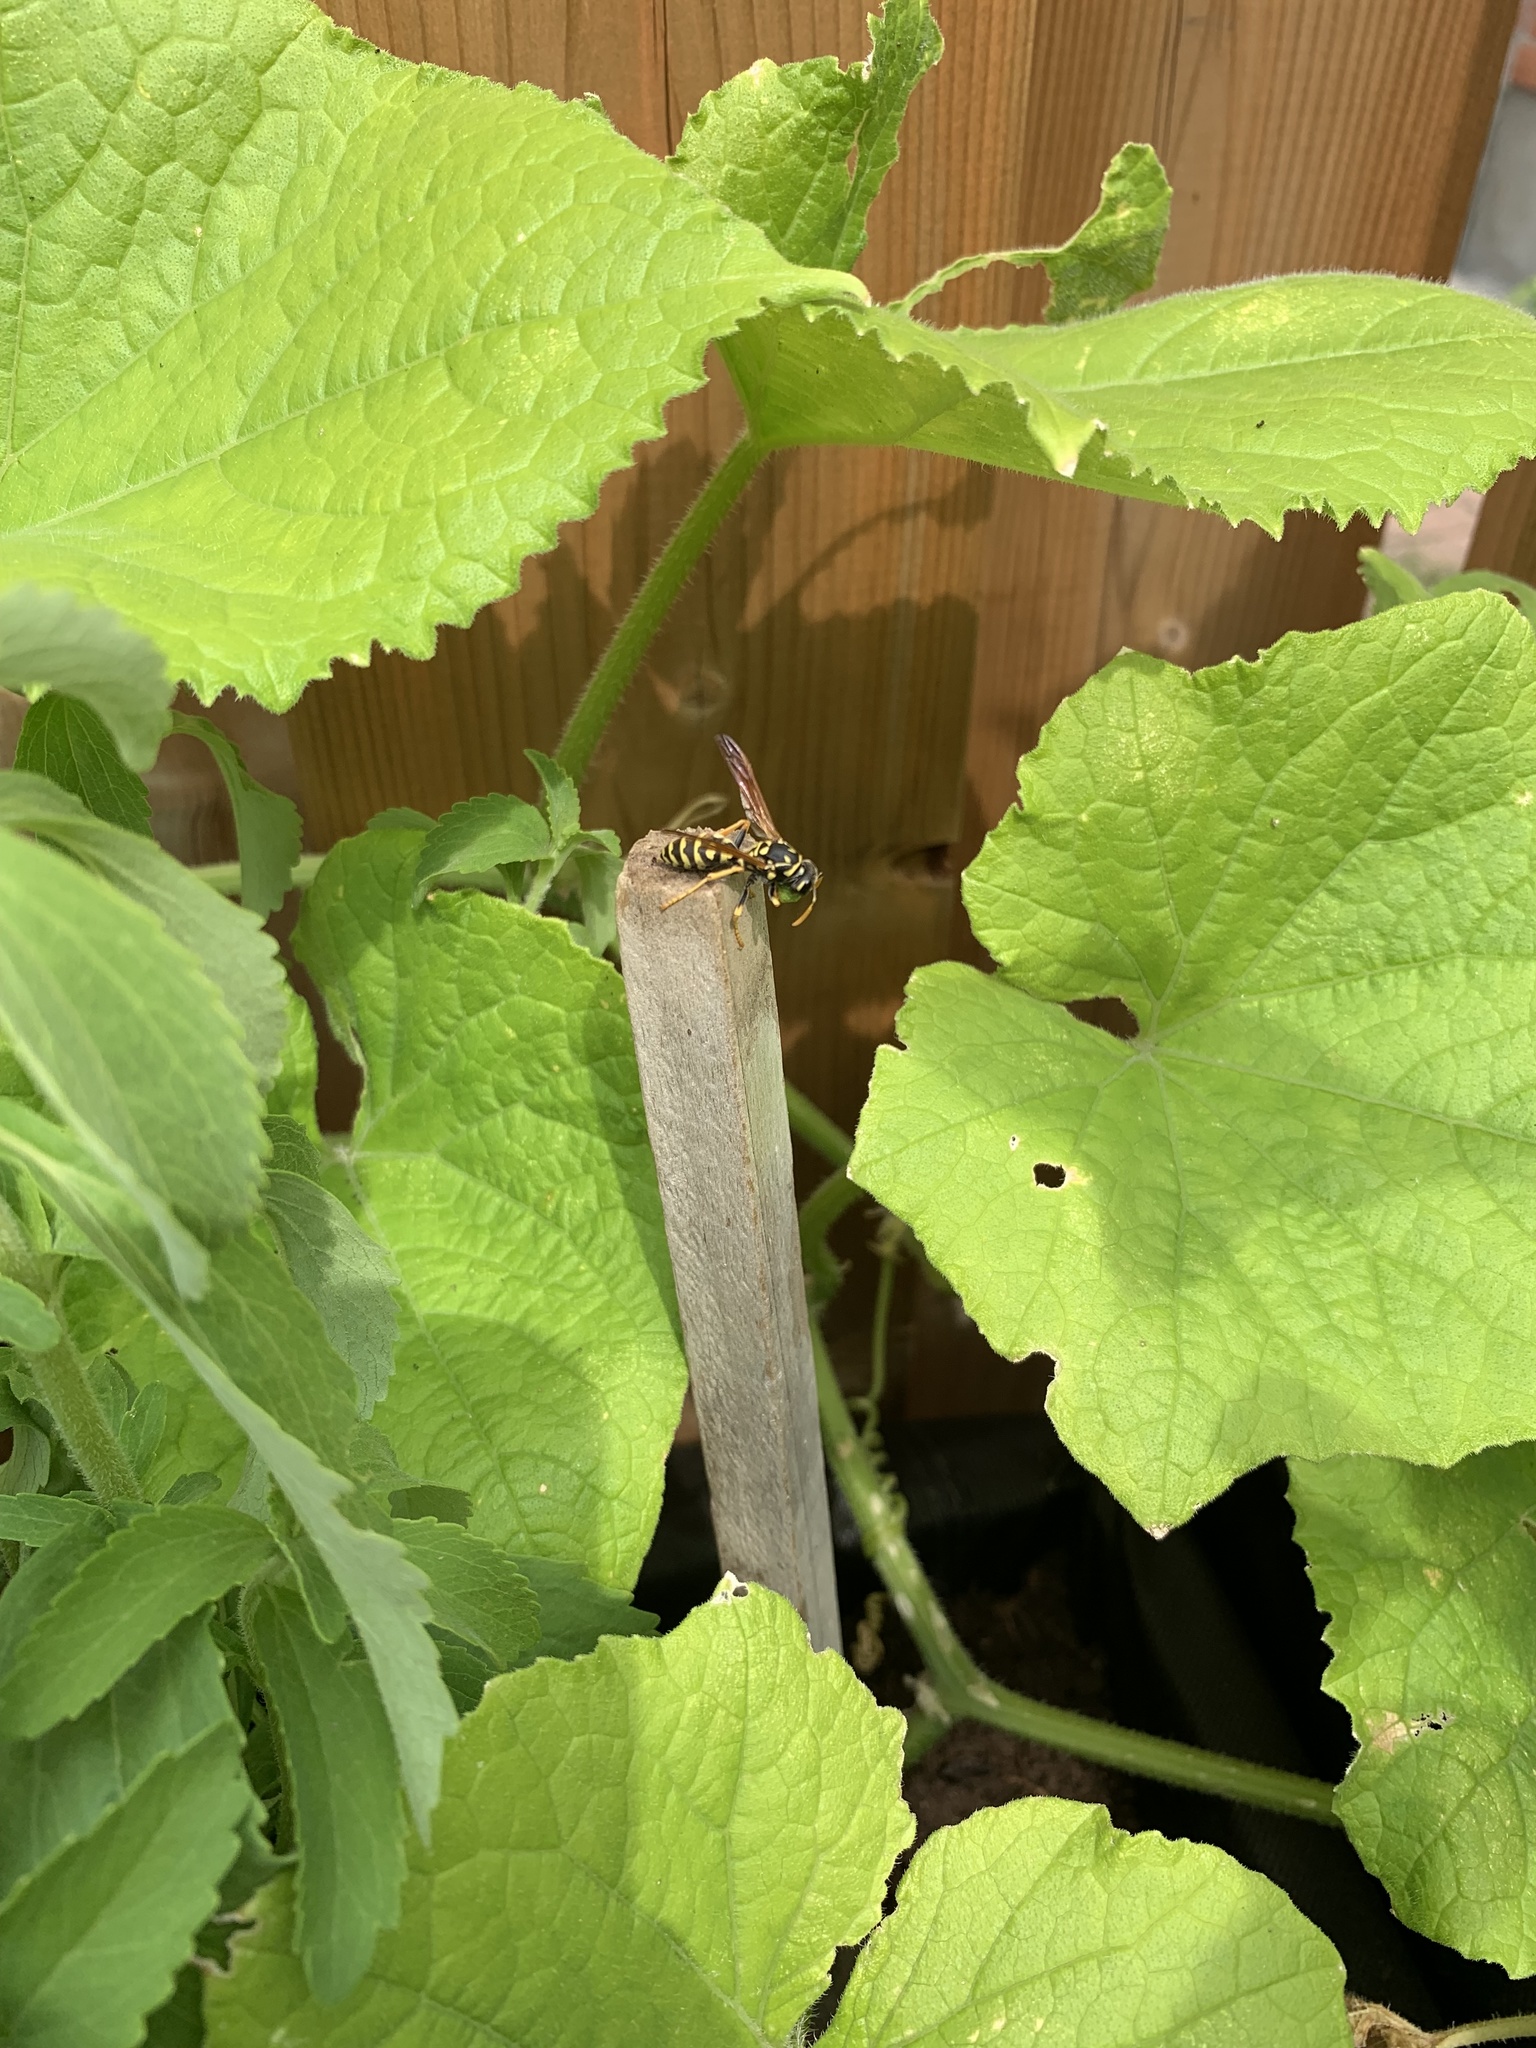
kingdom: Animalia
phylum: Arthropoda
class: Insecta
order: Hymenoptera
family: Eumenidae
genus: Polistes
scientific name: Polistes dominula
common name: Paper wasp
